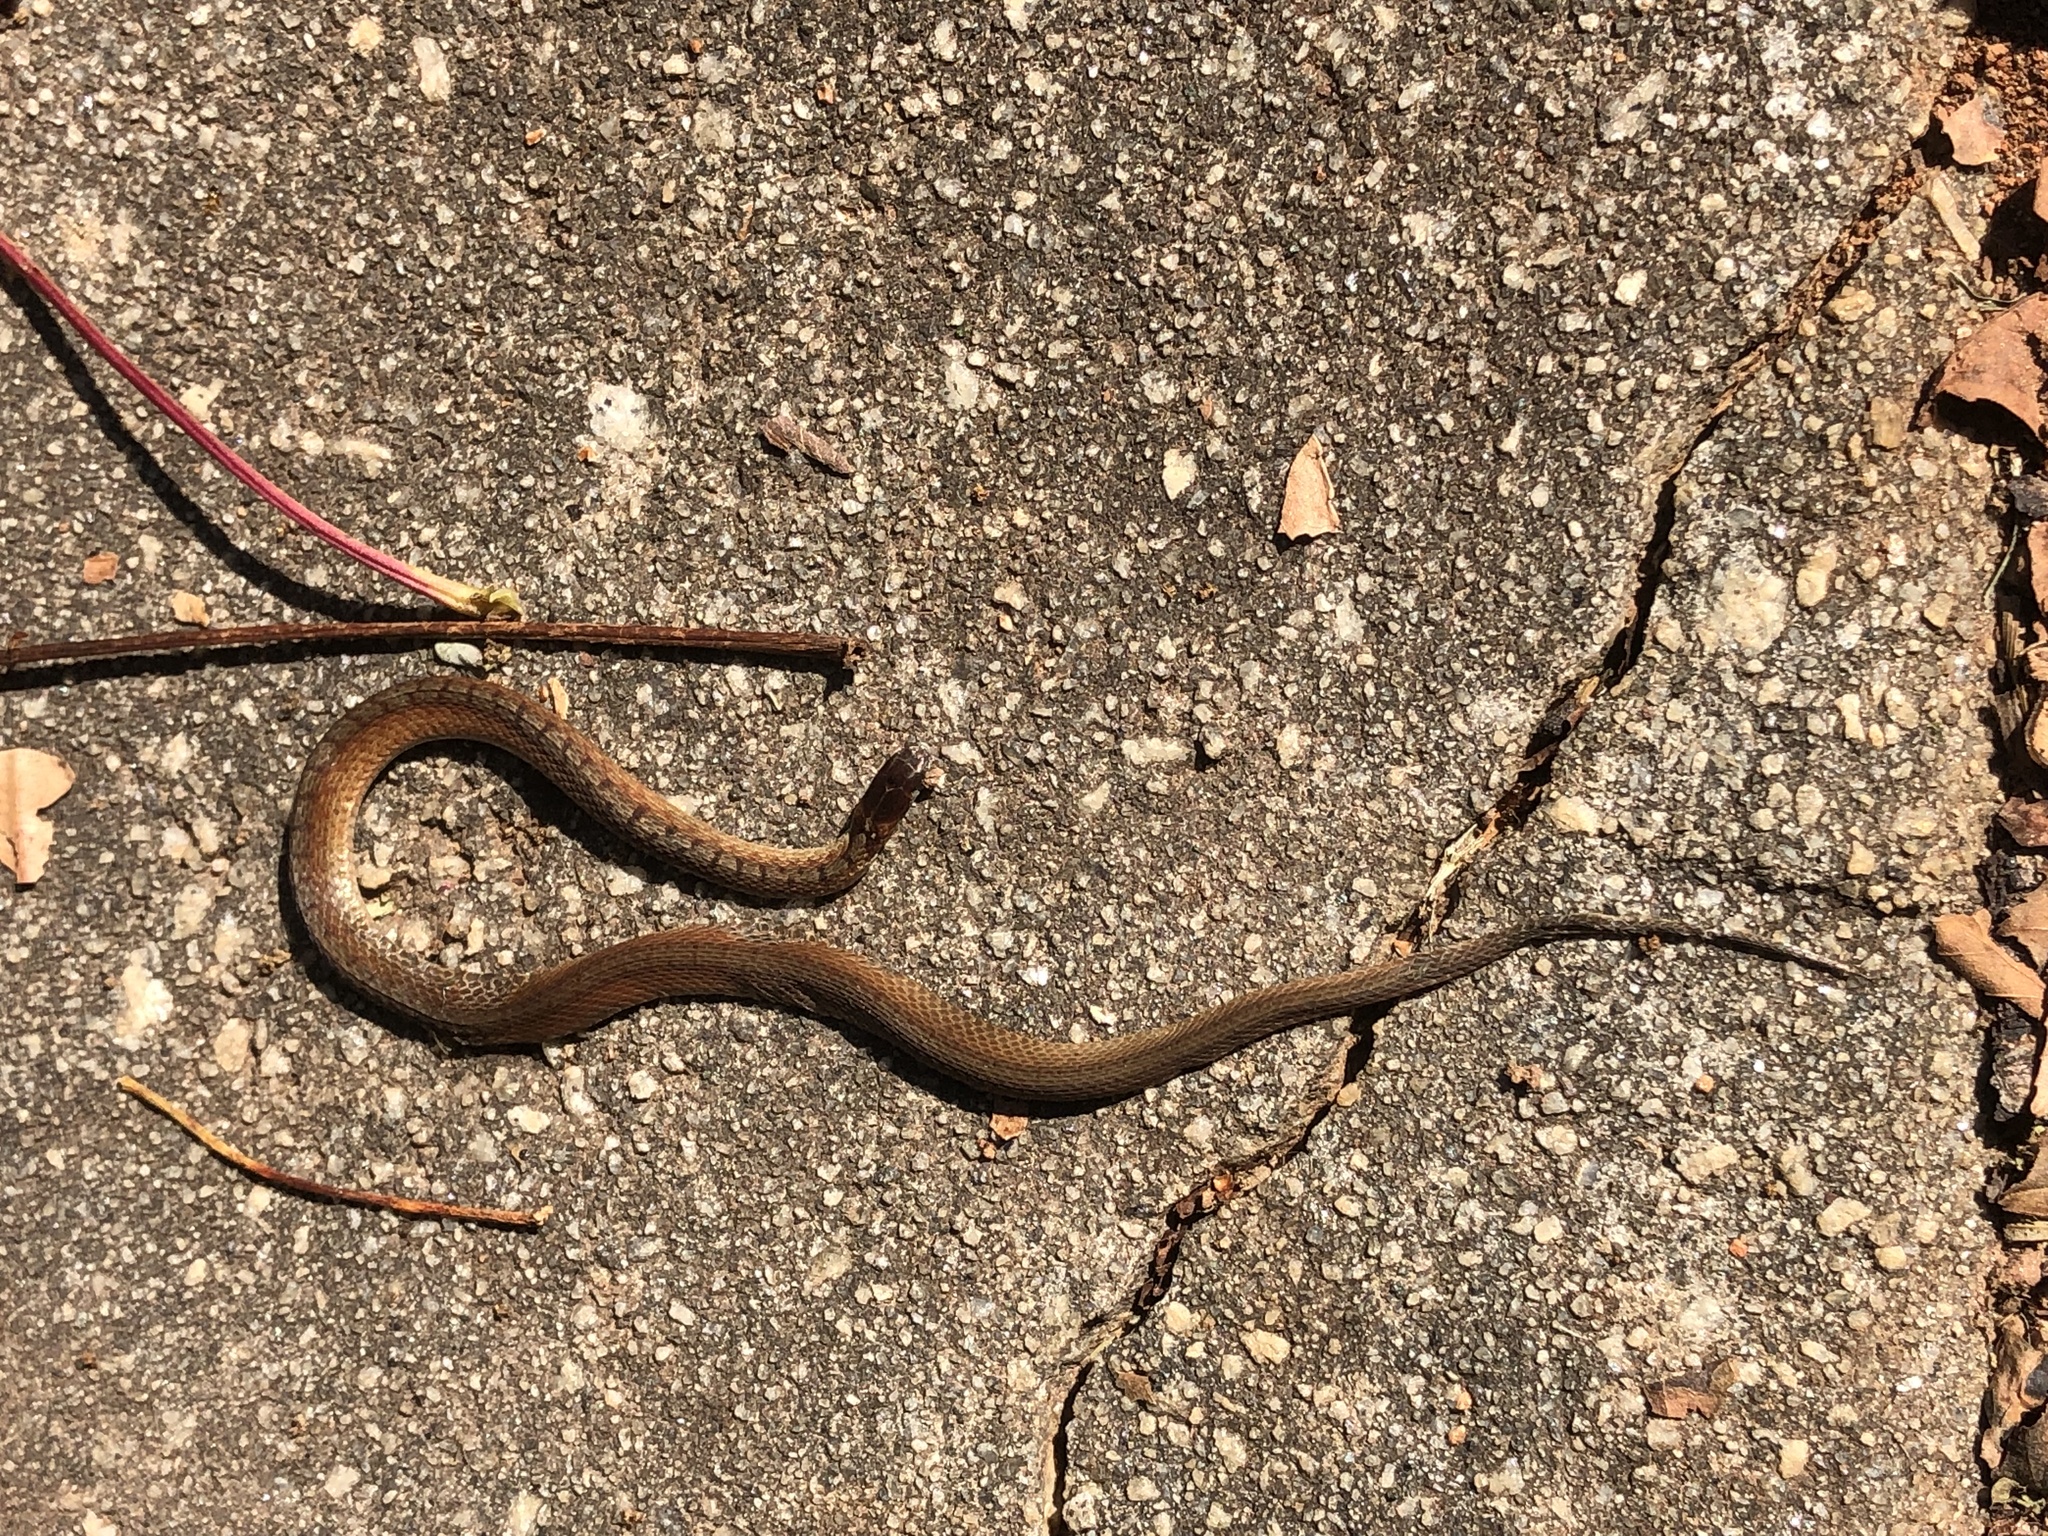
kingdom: Animalia
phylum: Chordata
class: Squamata
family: Colubridae
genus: Storeria
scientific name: Storeria dekayi
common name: (dekay’s) brown snake
